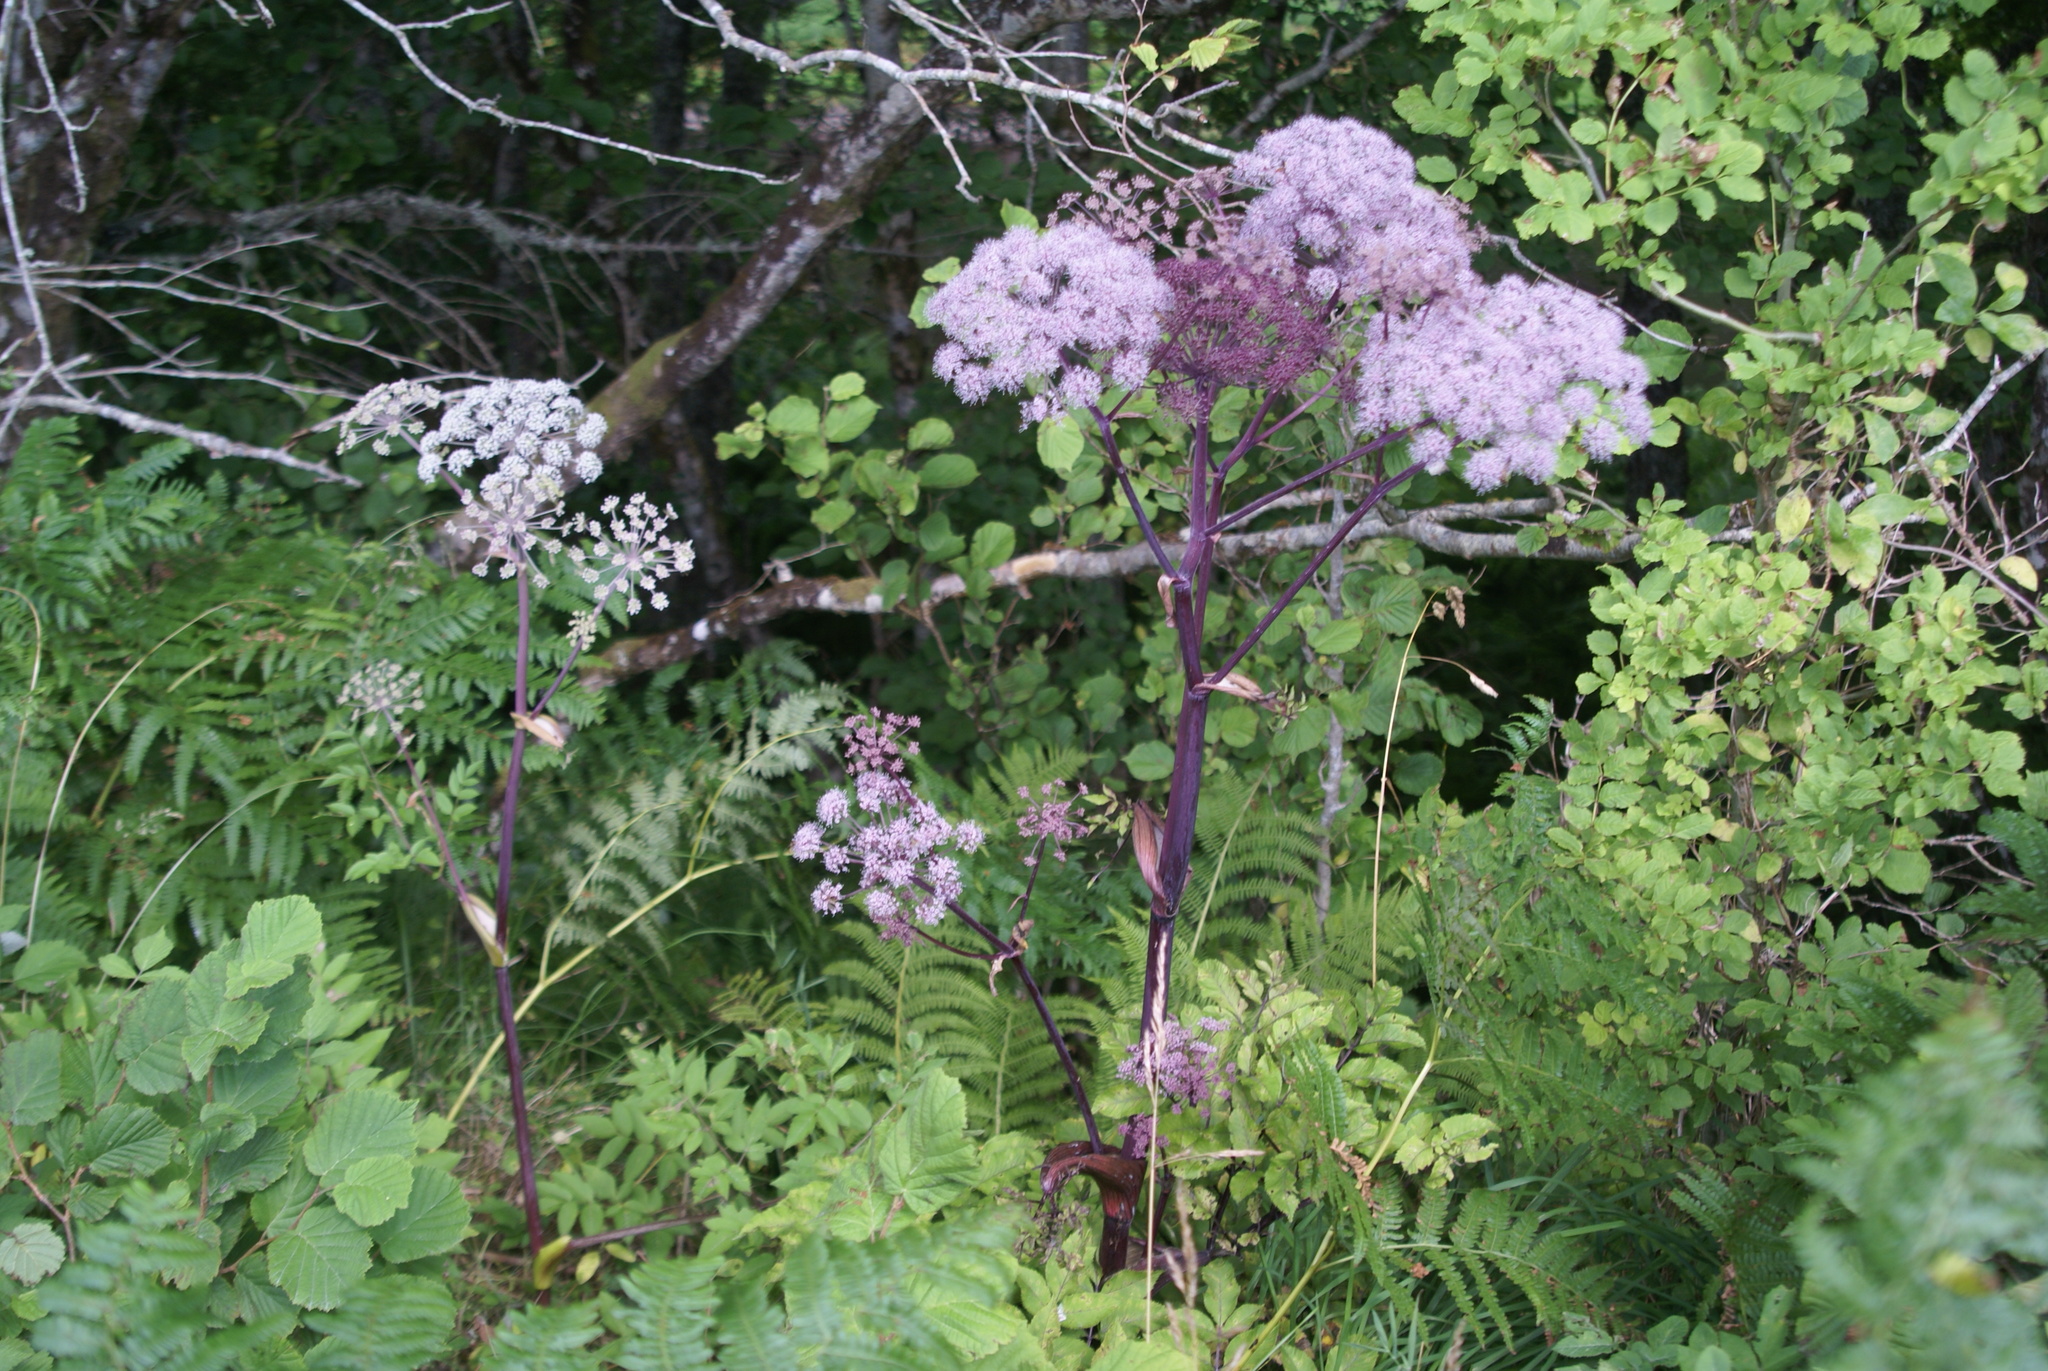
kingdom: Plantae
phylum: Tracheophyta
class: Magnoliopsida
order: Apiales
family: Apiaceae
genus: Angelica
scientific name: Angelica sylvestris
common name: Wild angelica
